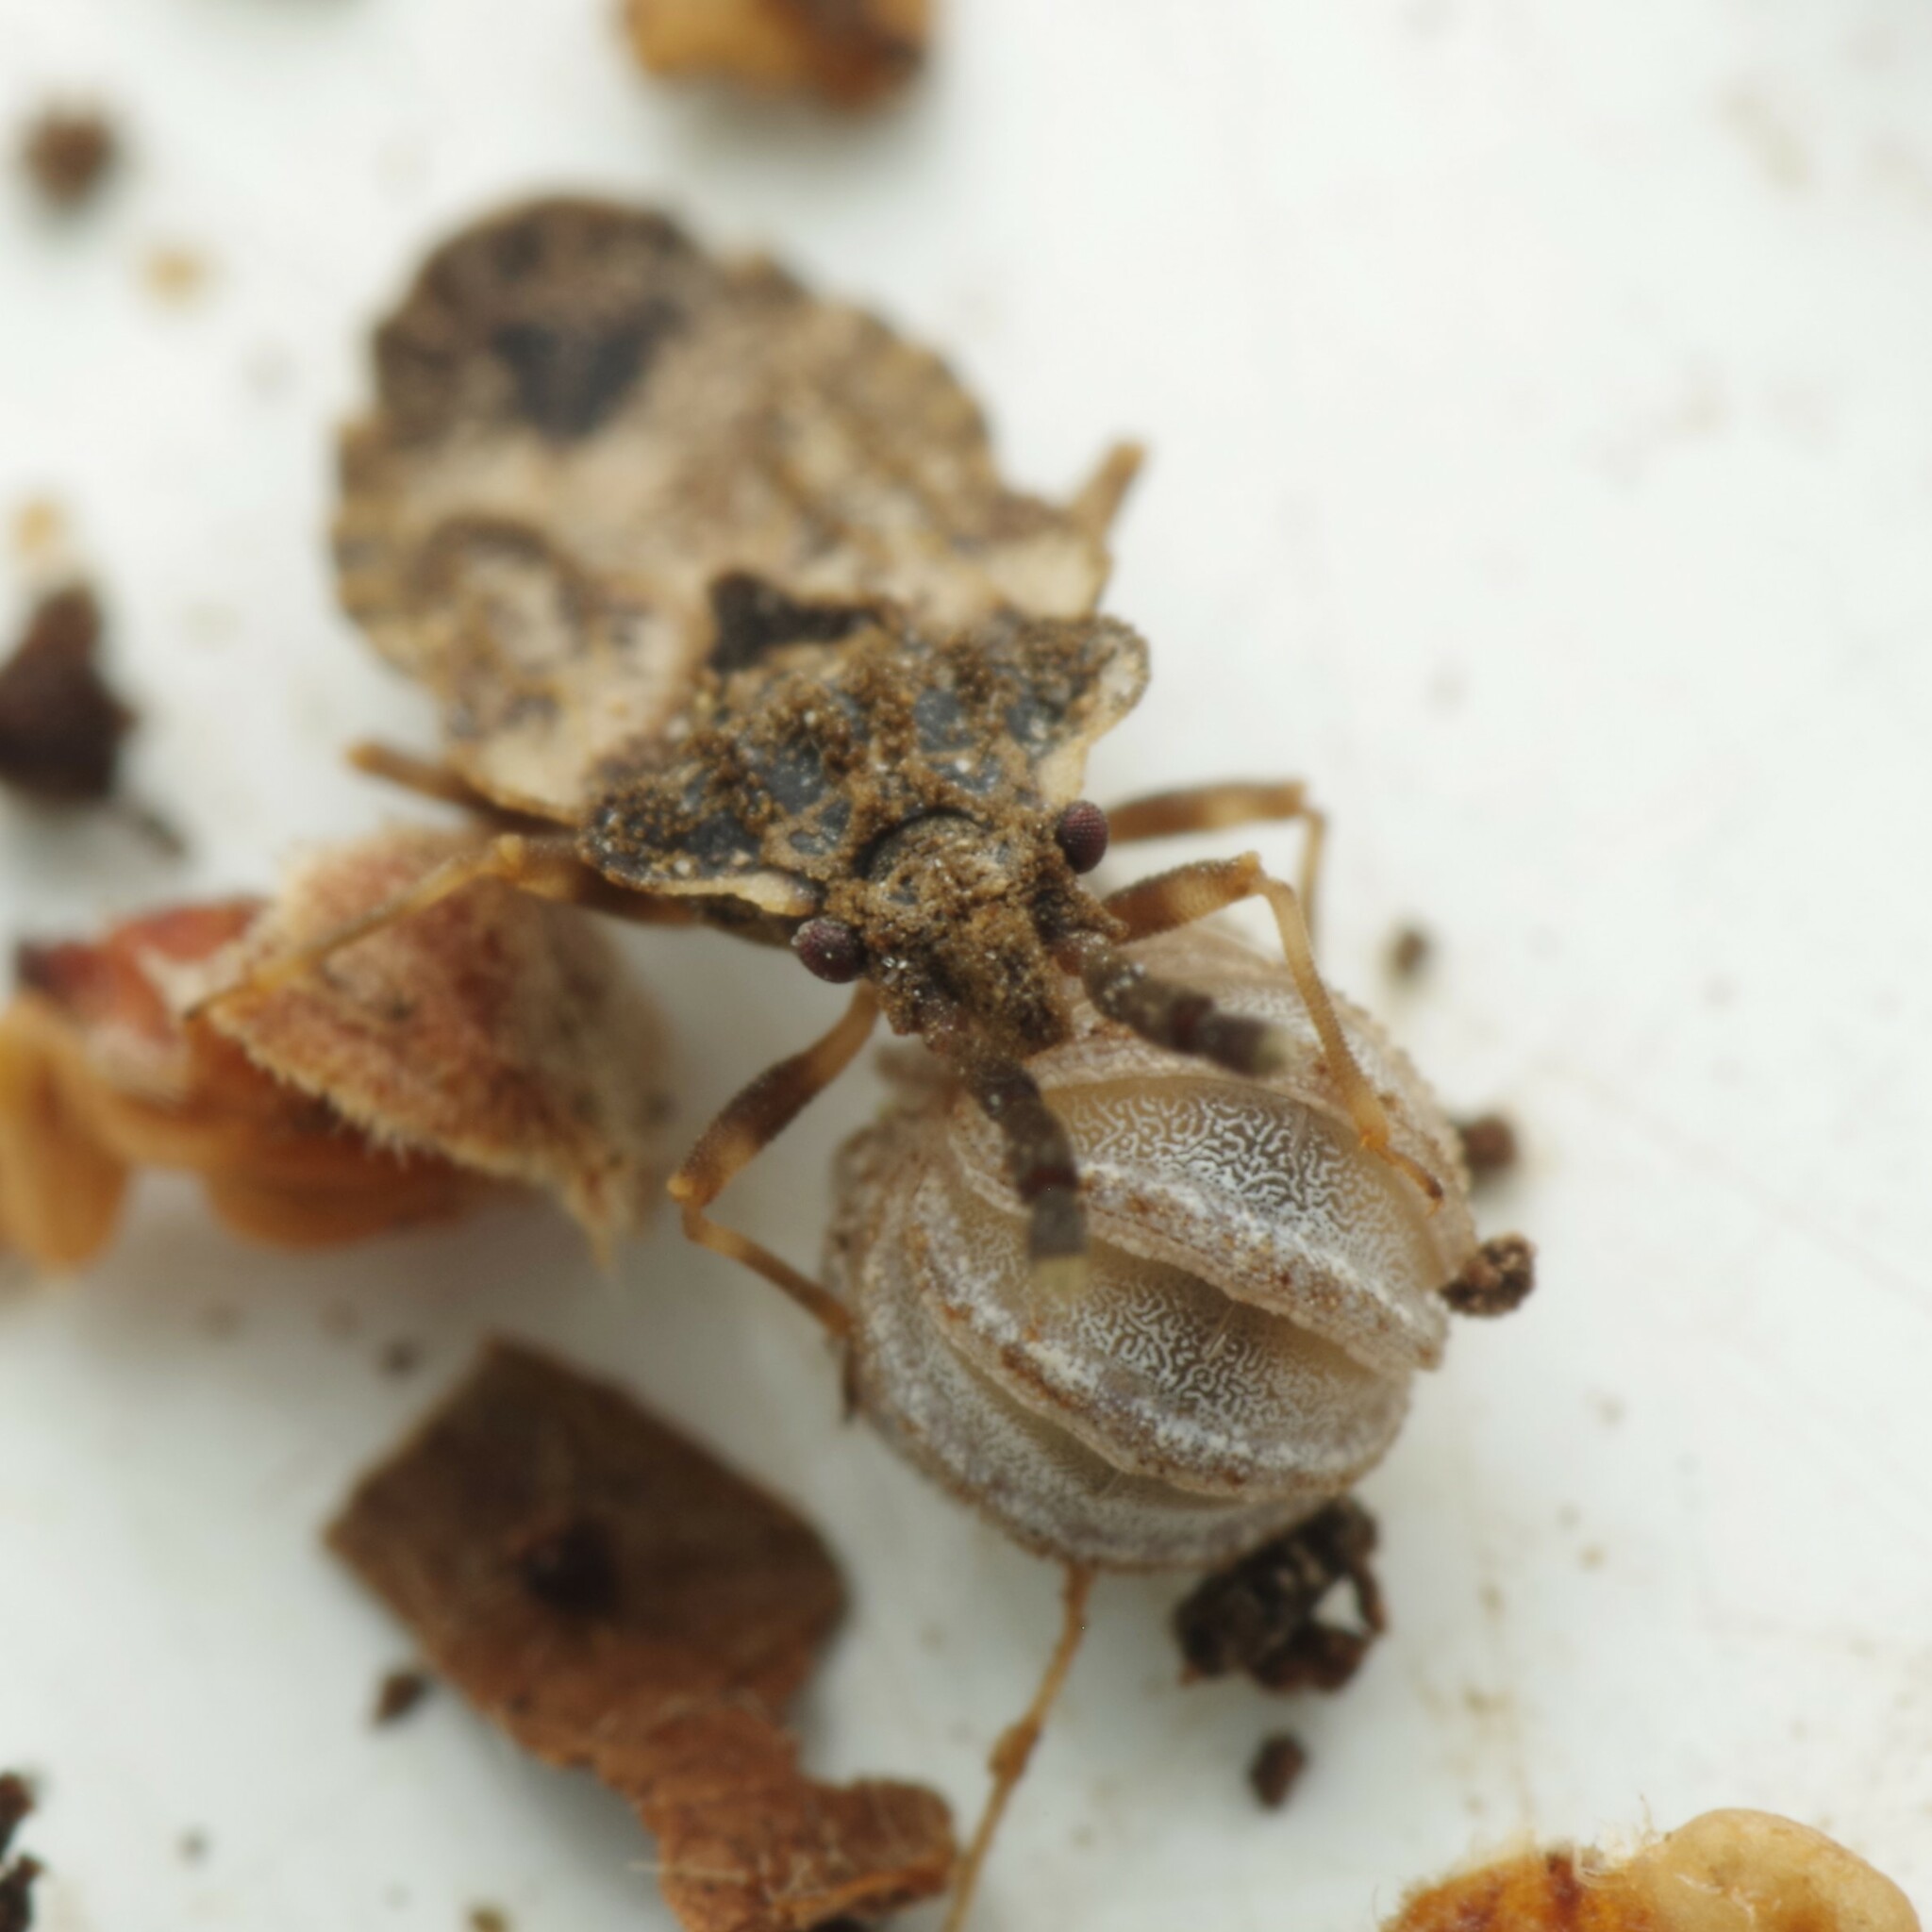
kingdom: Animalia
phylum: Arthropoda
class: Insecta
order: Hemiptera
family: Aradidae
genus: Aradus
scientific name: Aradus depressus
